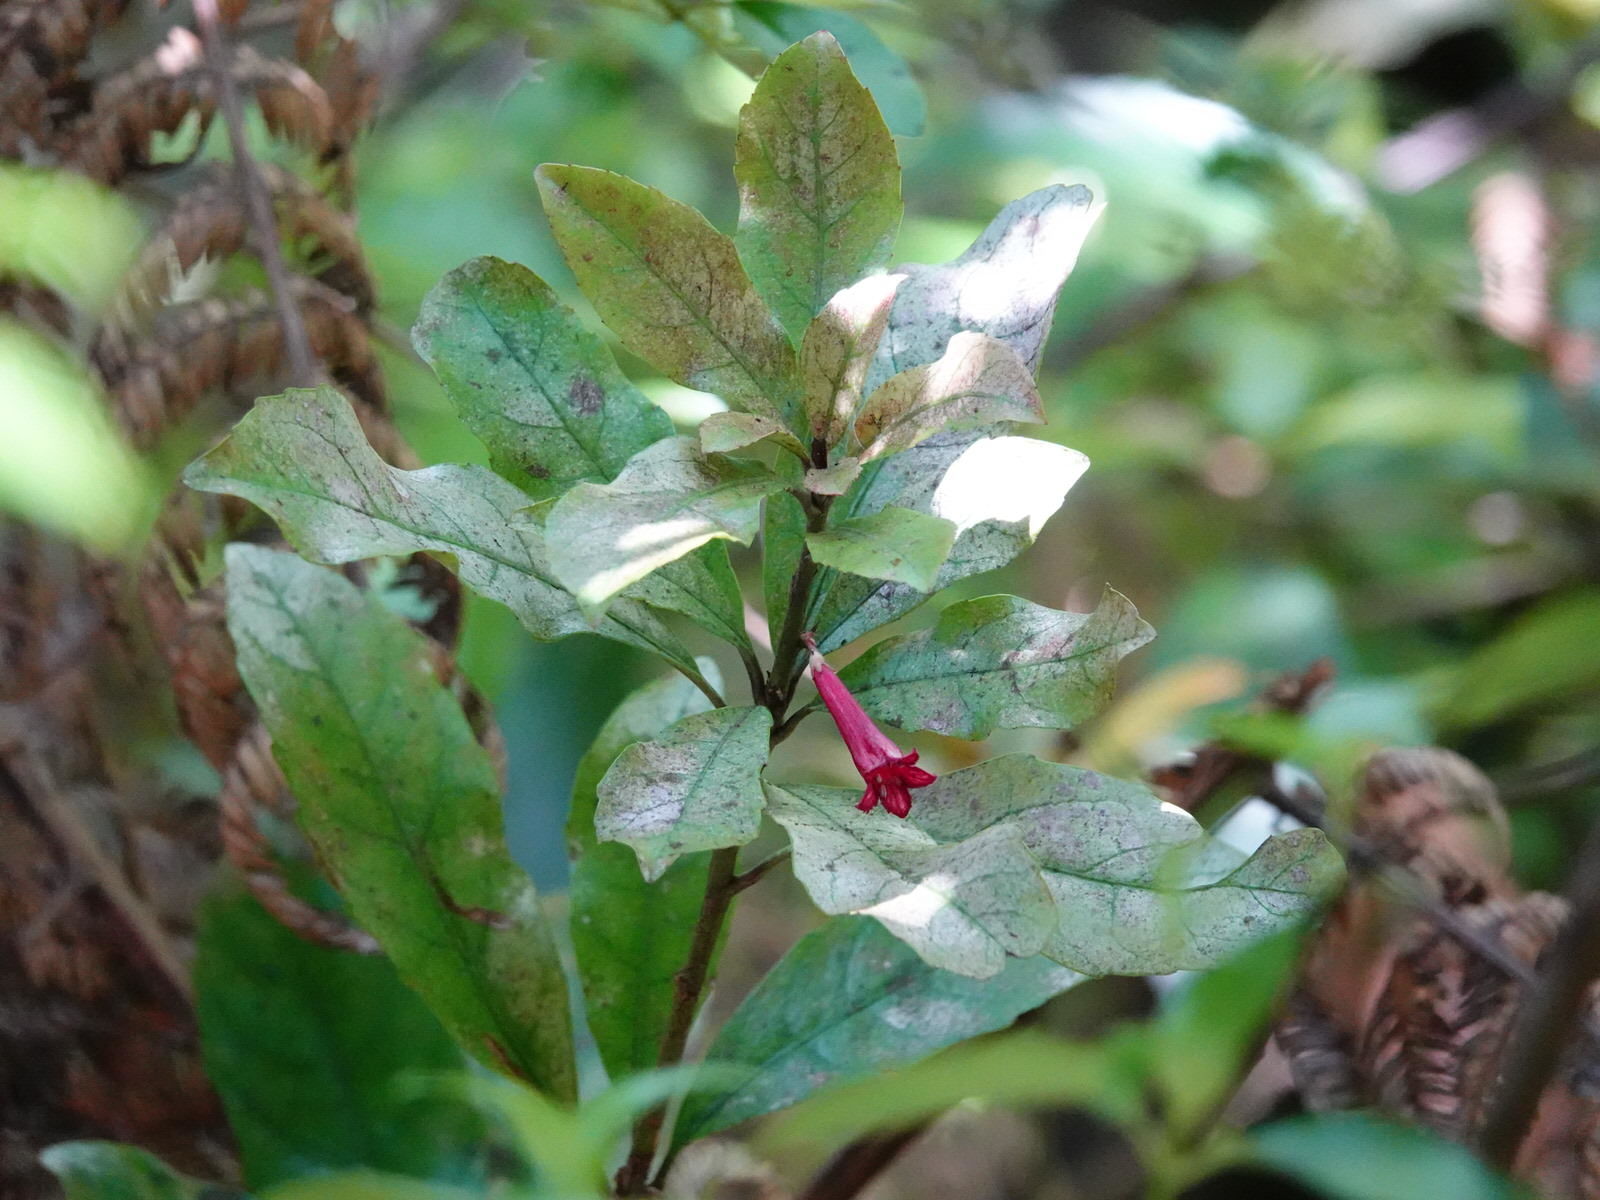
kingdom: Plantae
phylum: Tracheophyta
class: Magnoliopsida
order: Asterales
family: Alseuosmiaceae
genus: Alseuosmia
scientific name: Alseuosmia macrophylla
